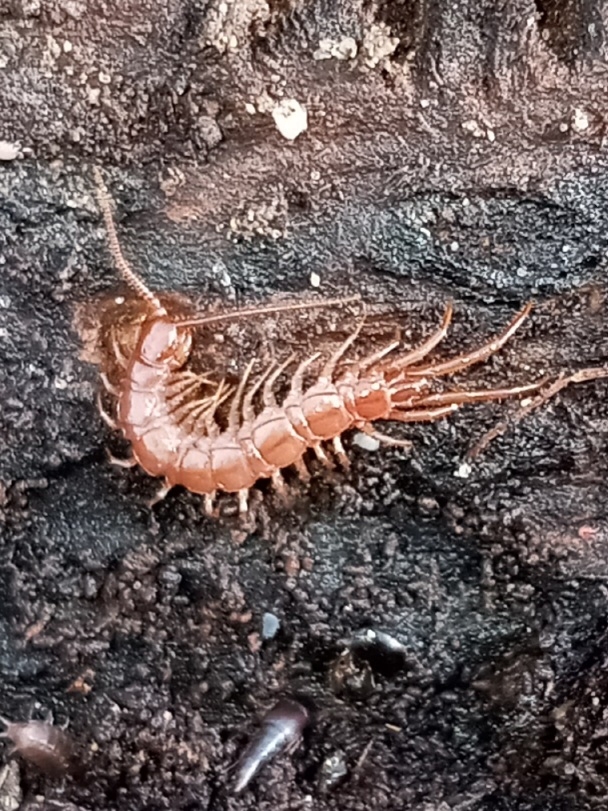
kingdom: Animalia
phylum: Arthropoda
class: Chilopoda
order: Lithobiomorpha
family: Lithobiidae
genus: Lithobius
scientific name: Lithobius forficatus
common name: Centipede
